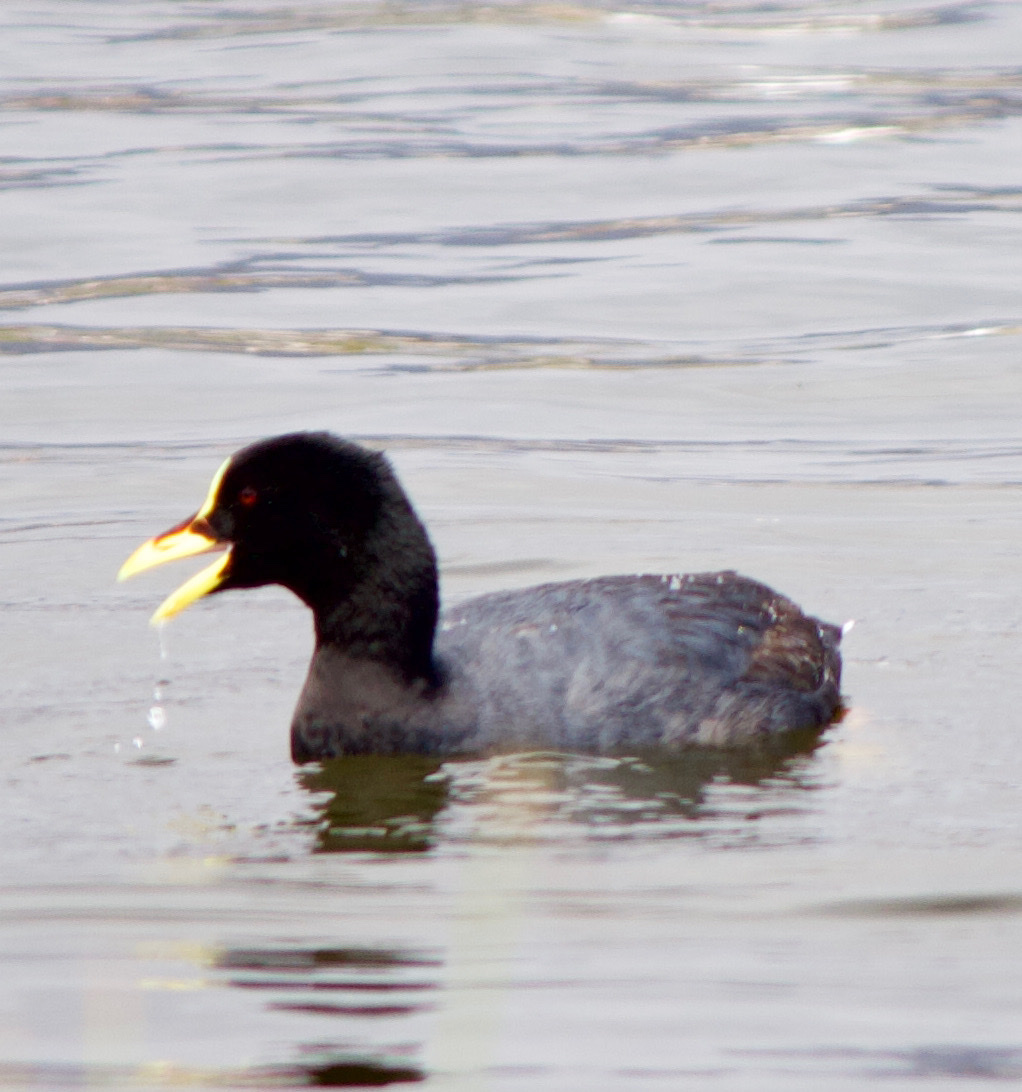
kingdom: Animalia
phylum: Chordata
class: Aves
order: Gruiformes
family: Rallidae
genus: Fulica
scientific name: Fulica armillata
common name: Red-gartered coot
